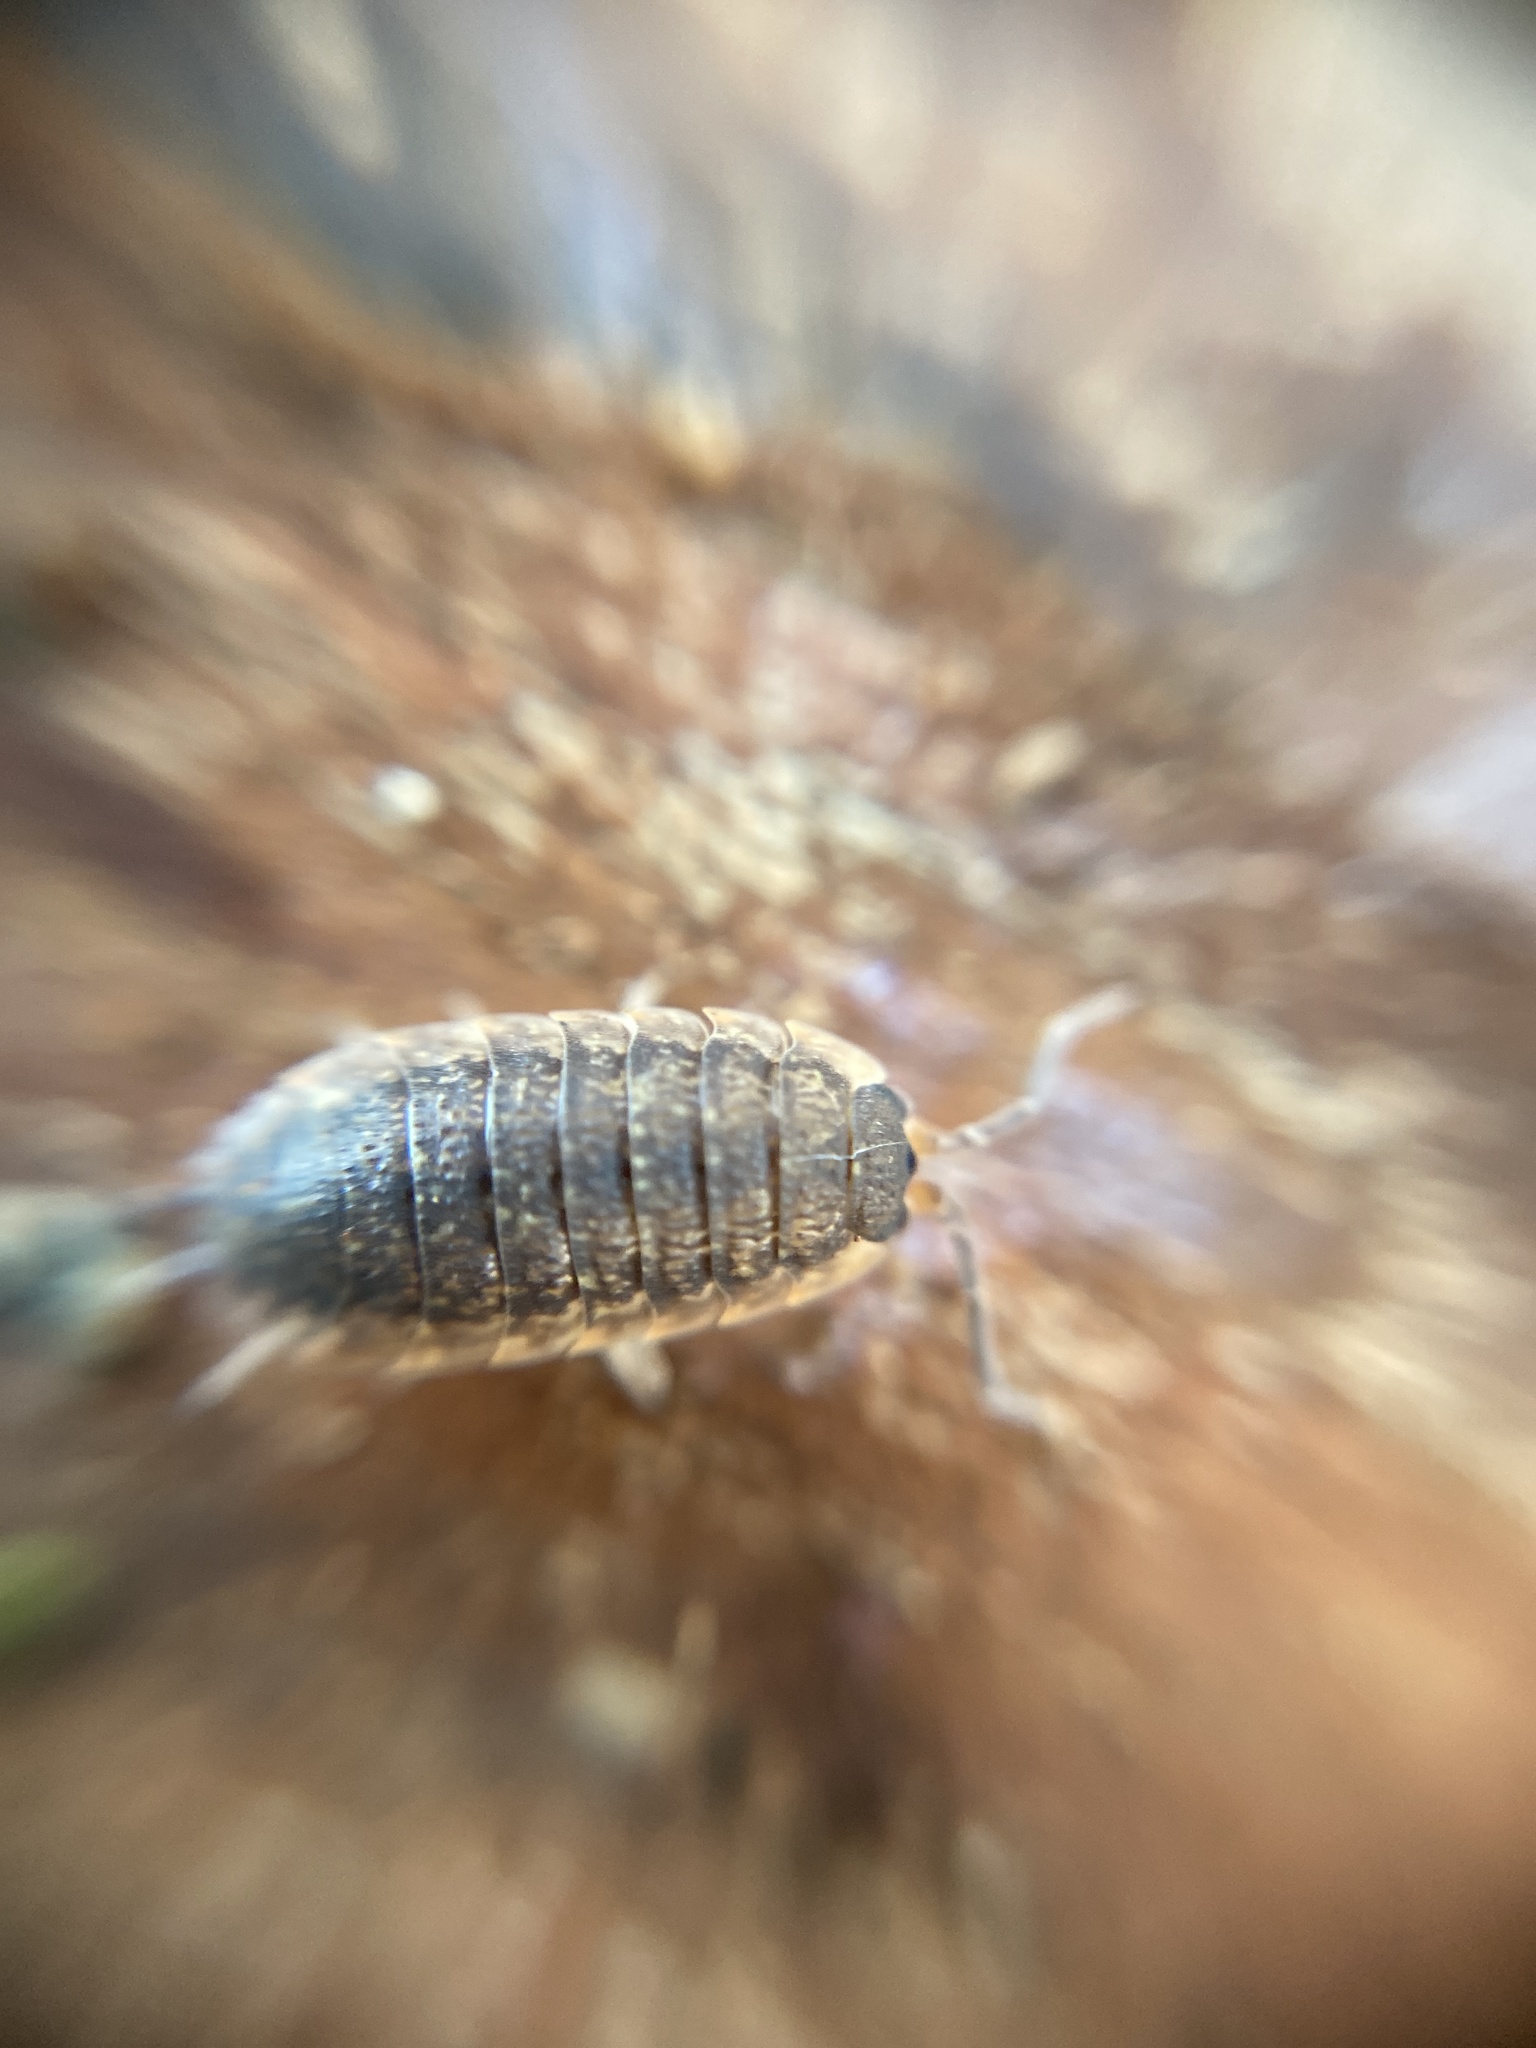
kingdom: Animalia
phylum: Arthropoda
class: Malacostraca
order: Isopoda
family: Porcellionidae
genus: Porcellio
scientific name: Porcellio scaber
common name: Common rough woodlouse
